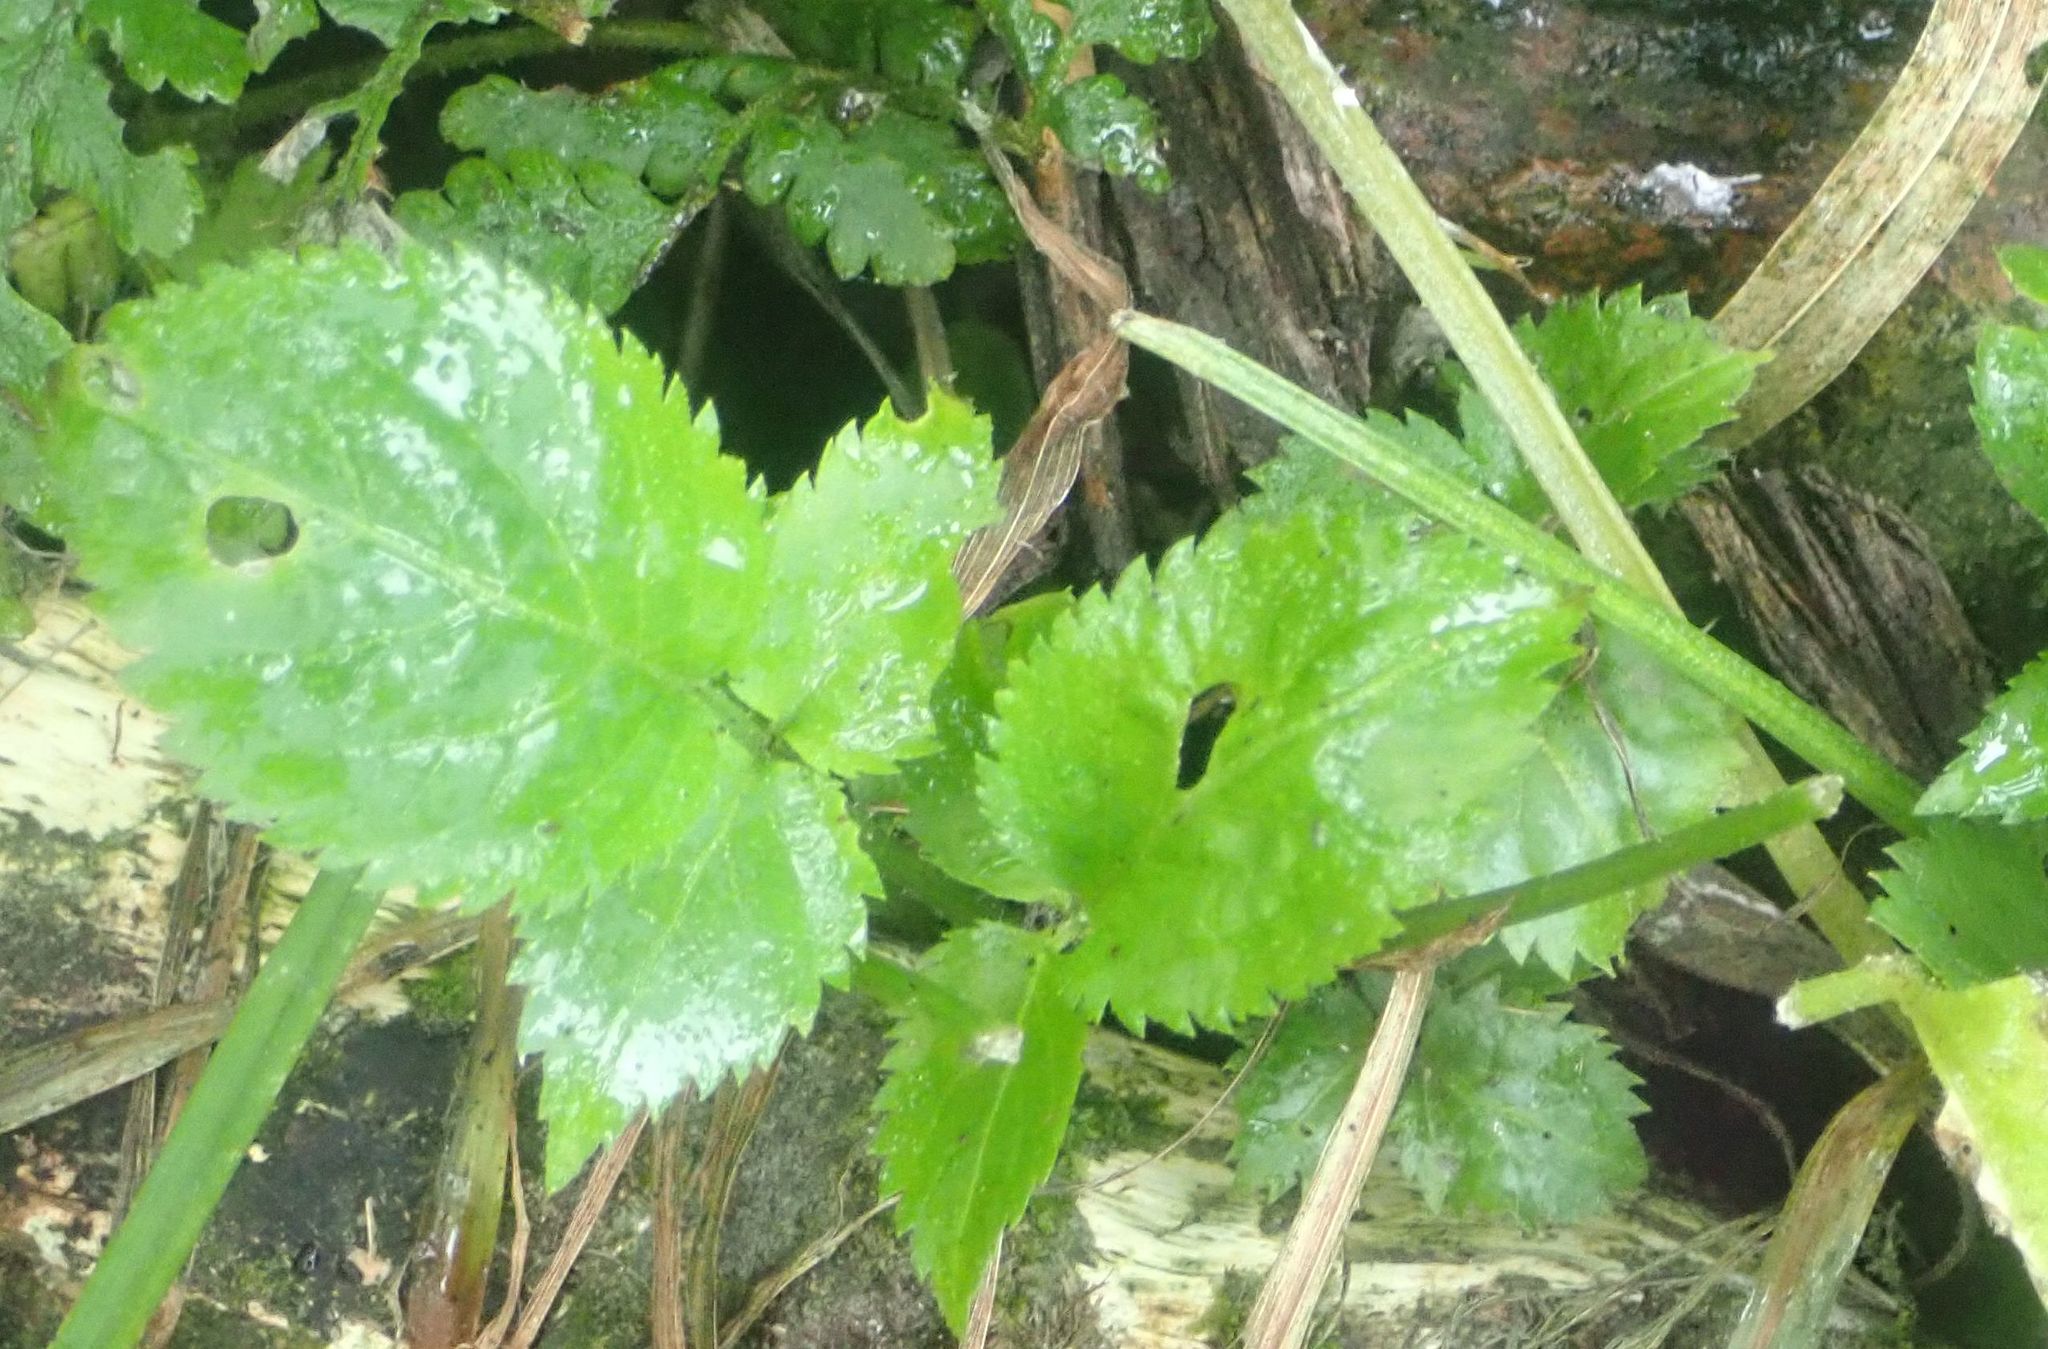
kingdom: Plantae
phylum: Tracheophyta
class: Magnoliopsida
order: Dipsacales
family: Viburnaceae
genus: Sambucus
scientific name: Sambucus nigra
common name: Elder
